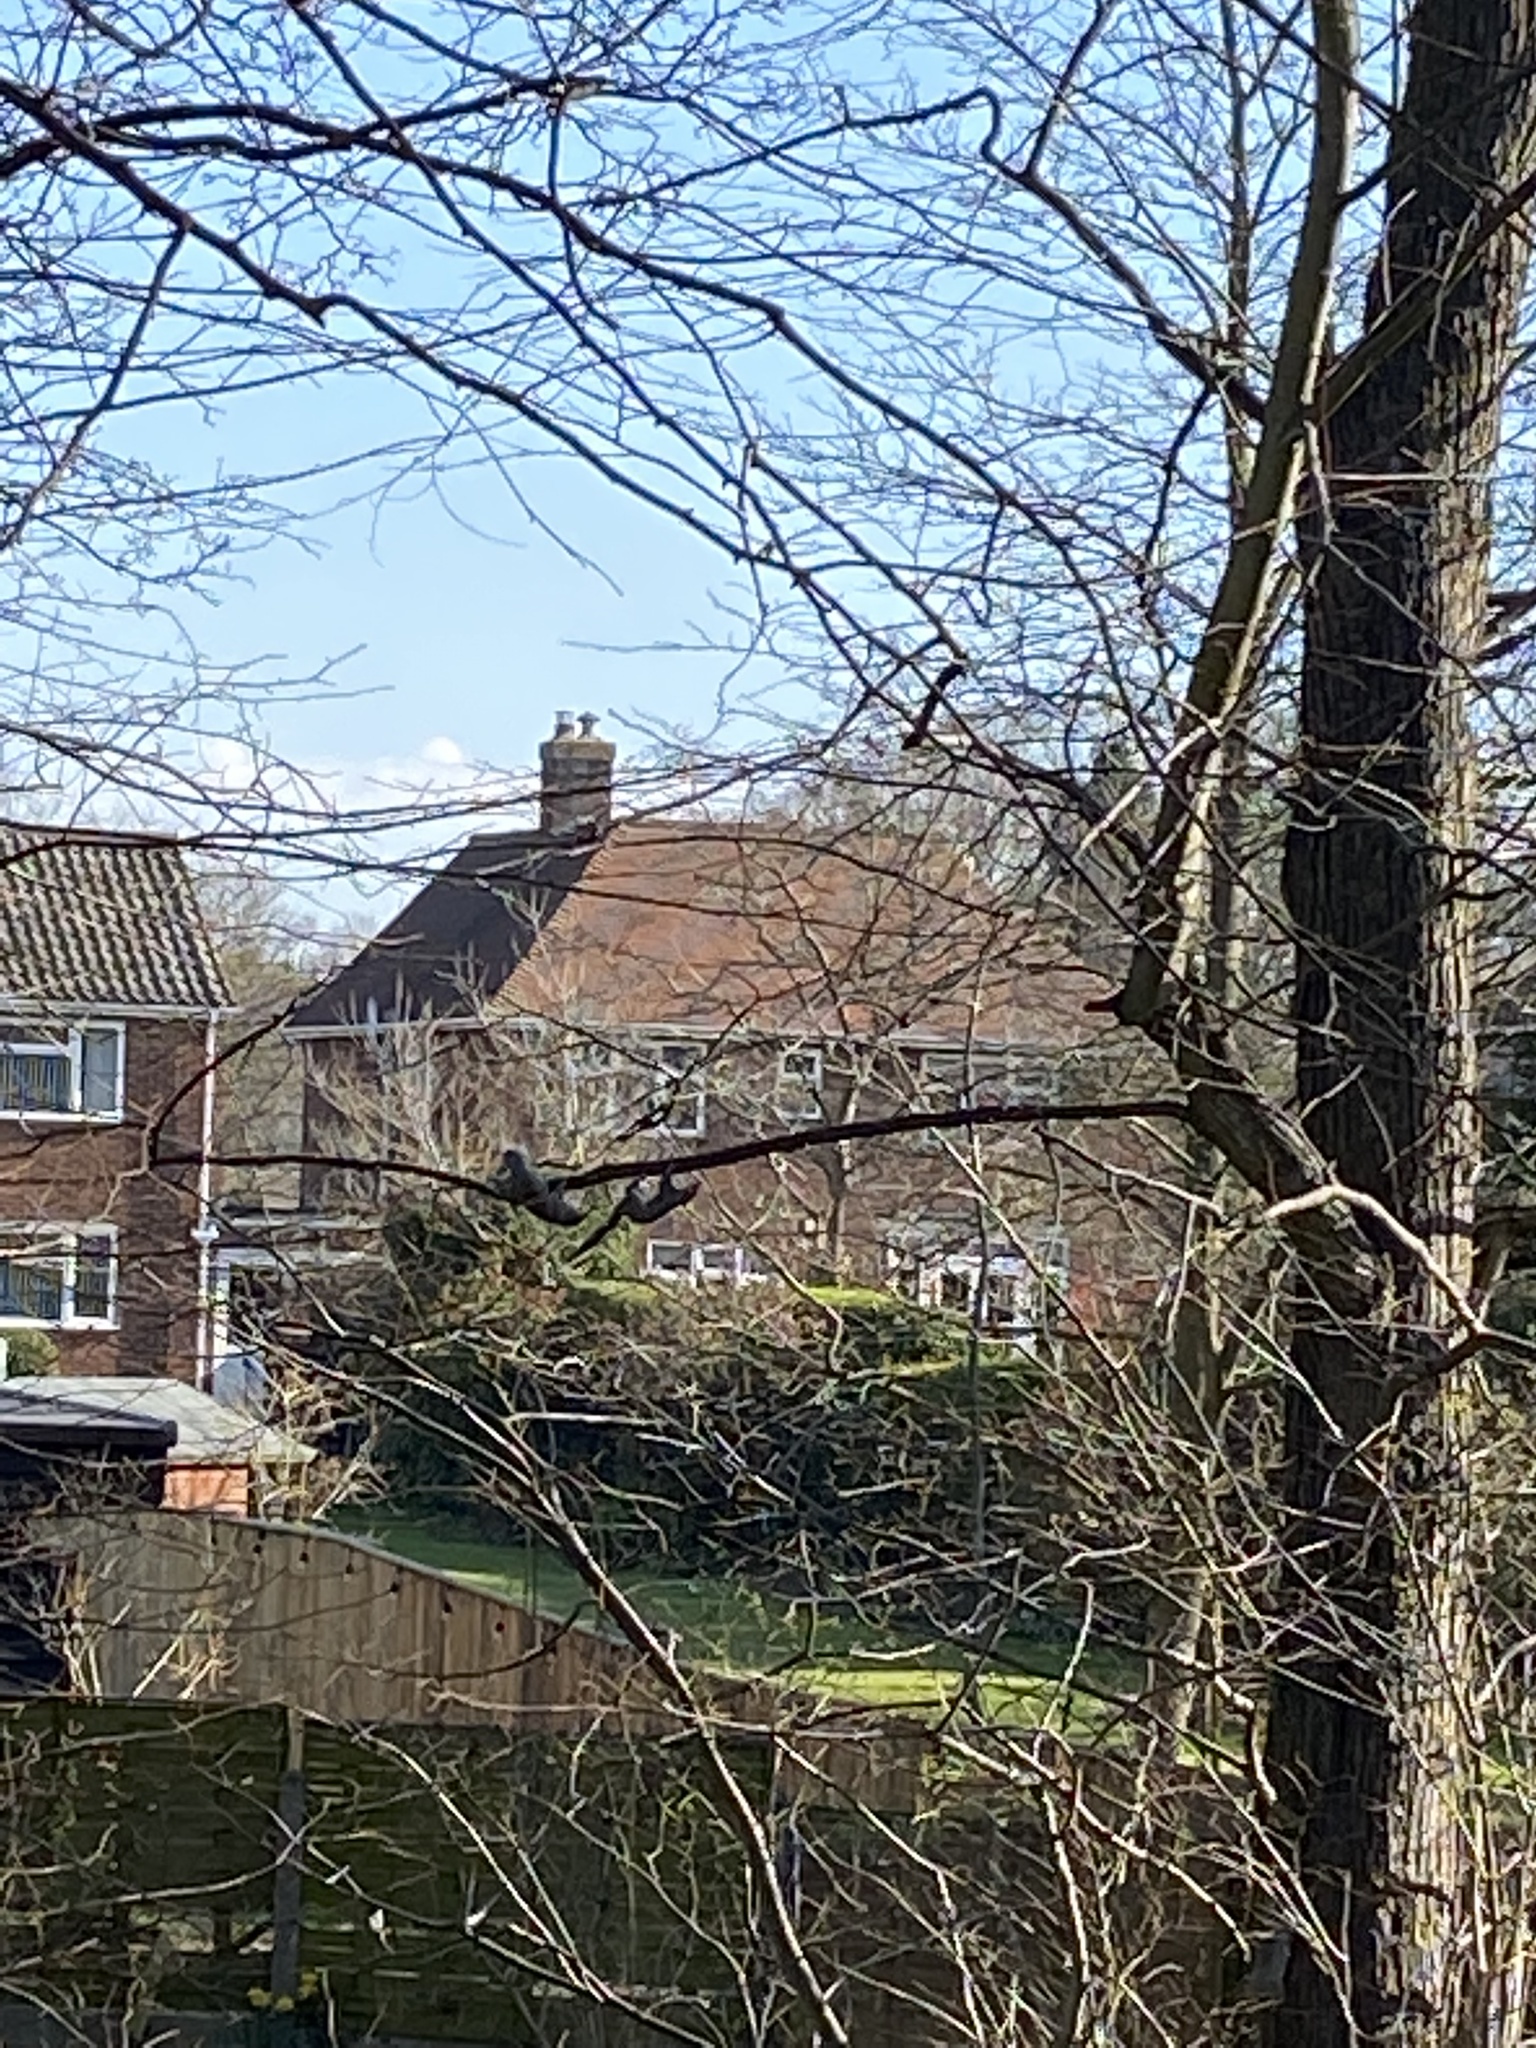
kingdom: Animalia
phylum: Chordata
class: Mammalia
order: Rodentia
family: Sciuridae
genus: Sciurus
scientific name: Sciurus carolinensis
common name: Eastern gray squirrel
